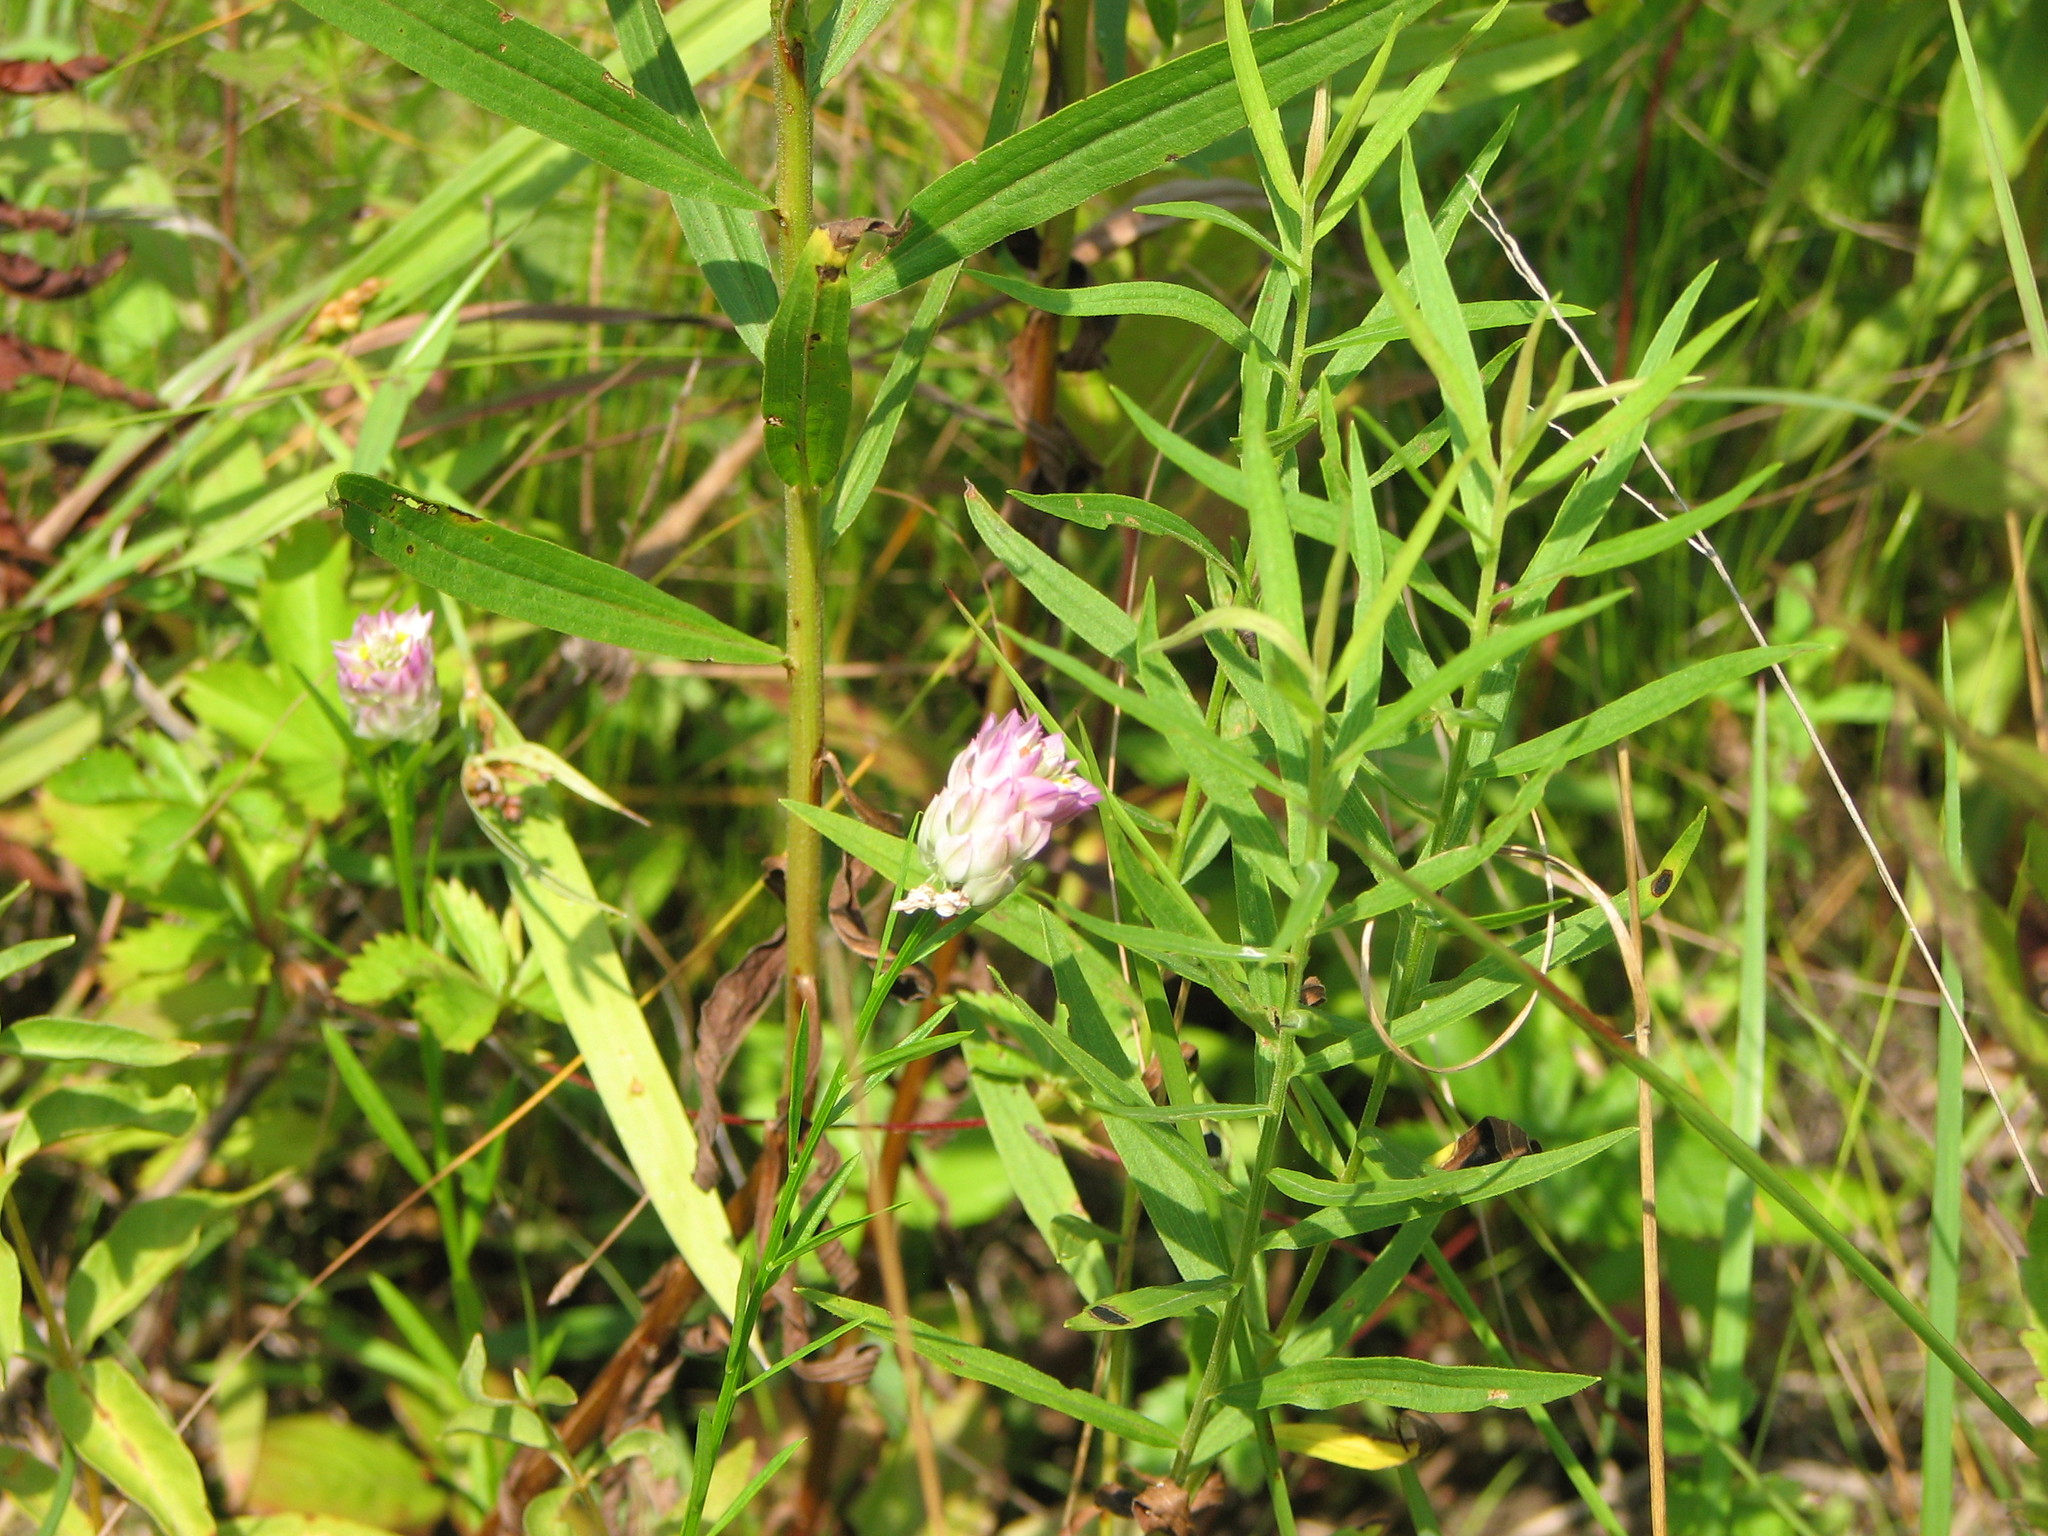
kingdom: Plantae
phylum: Tracheophyta
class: Magnoliopsida
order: Fabales
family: Polygalaceae
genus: Polygala
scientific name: Polygala sanguinea
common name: Blood milkwort
